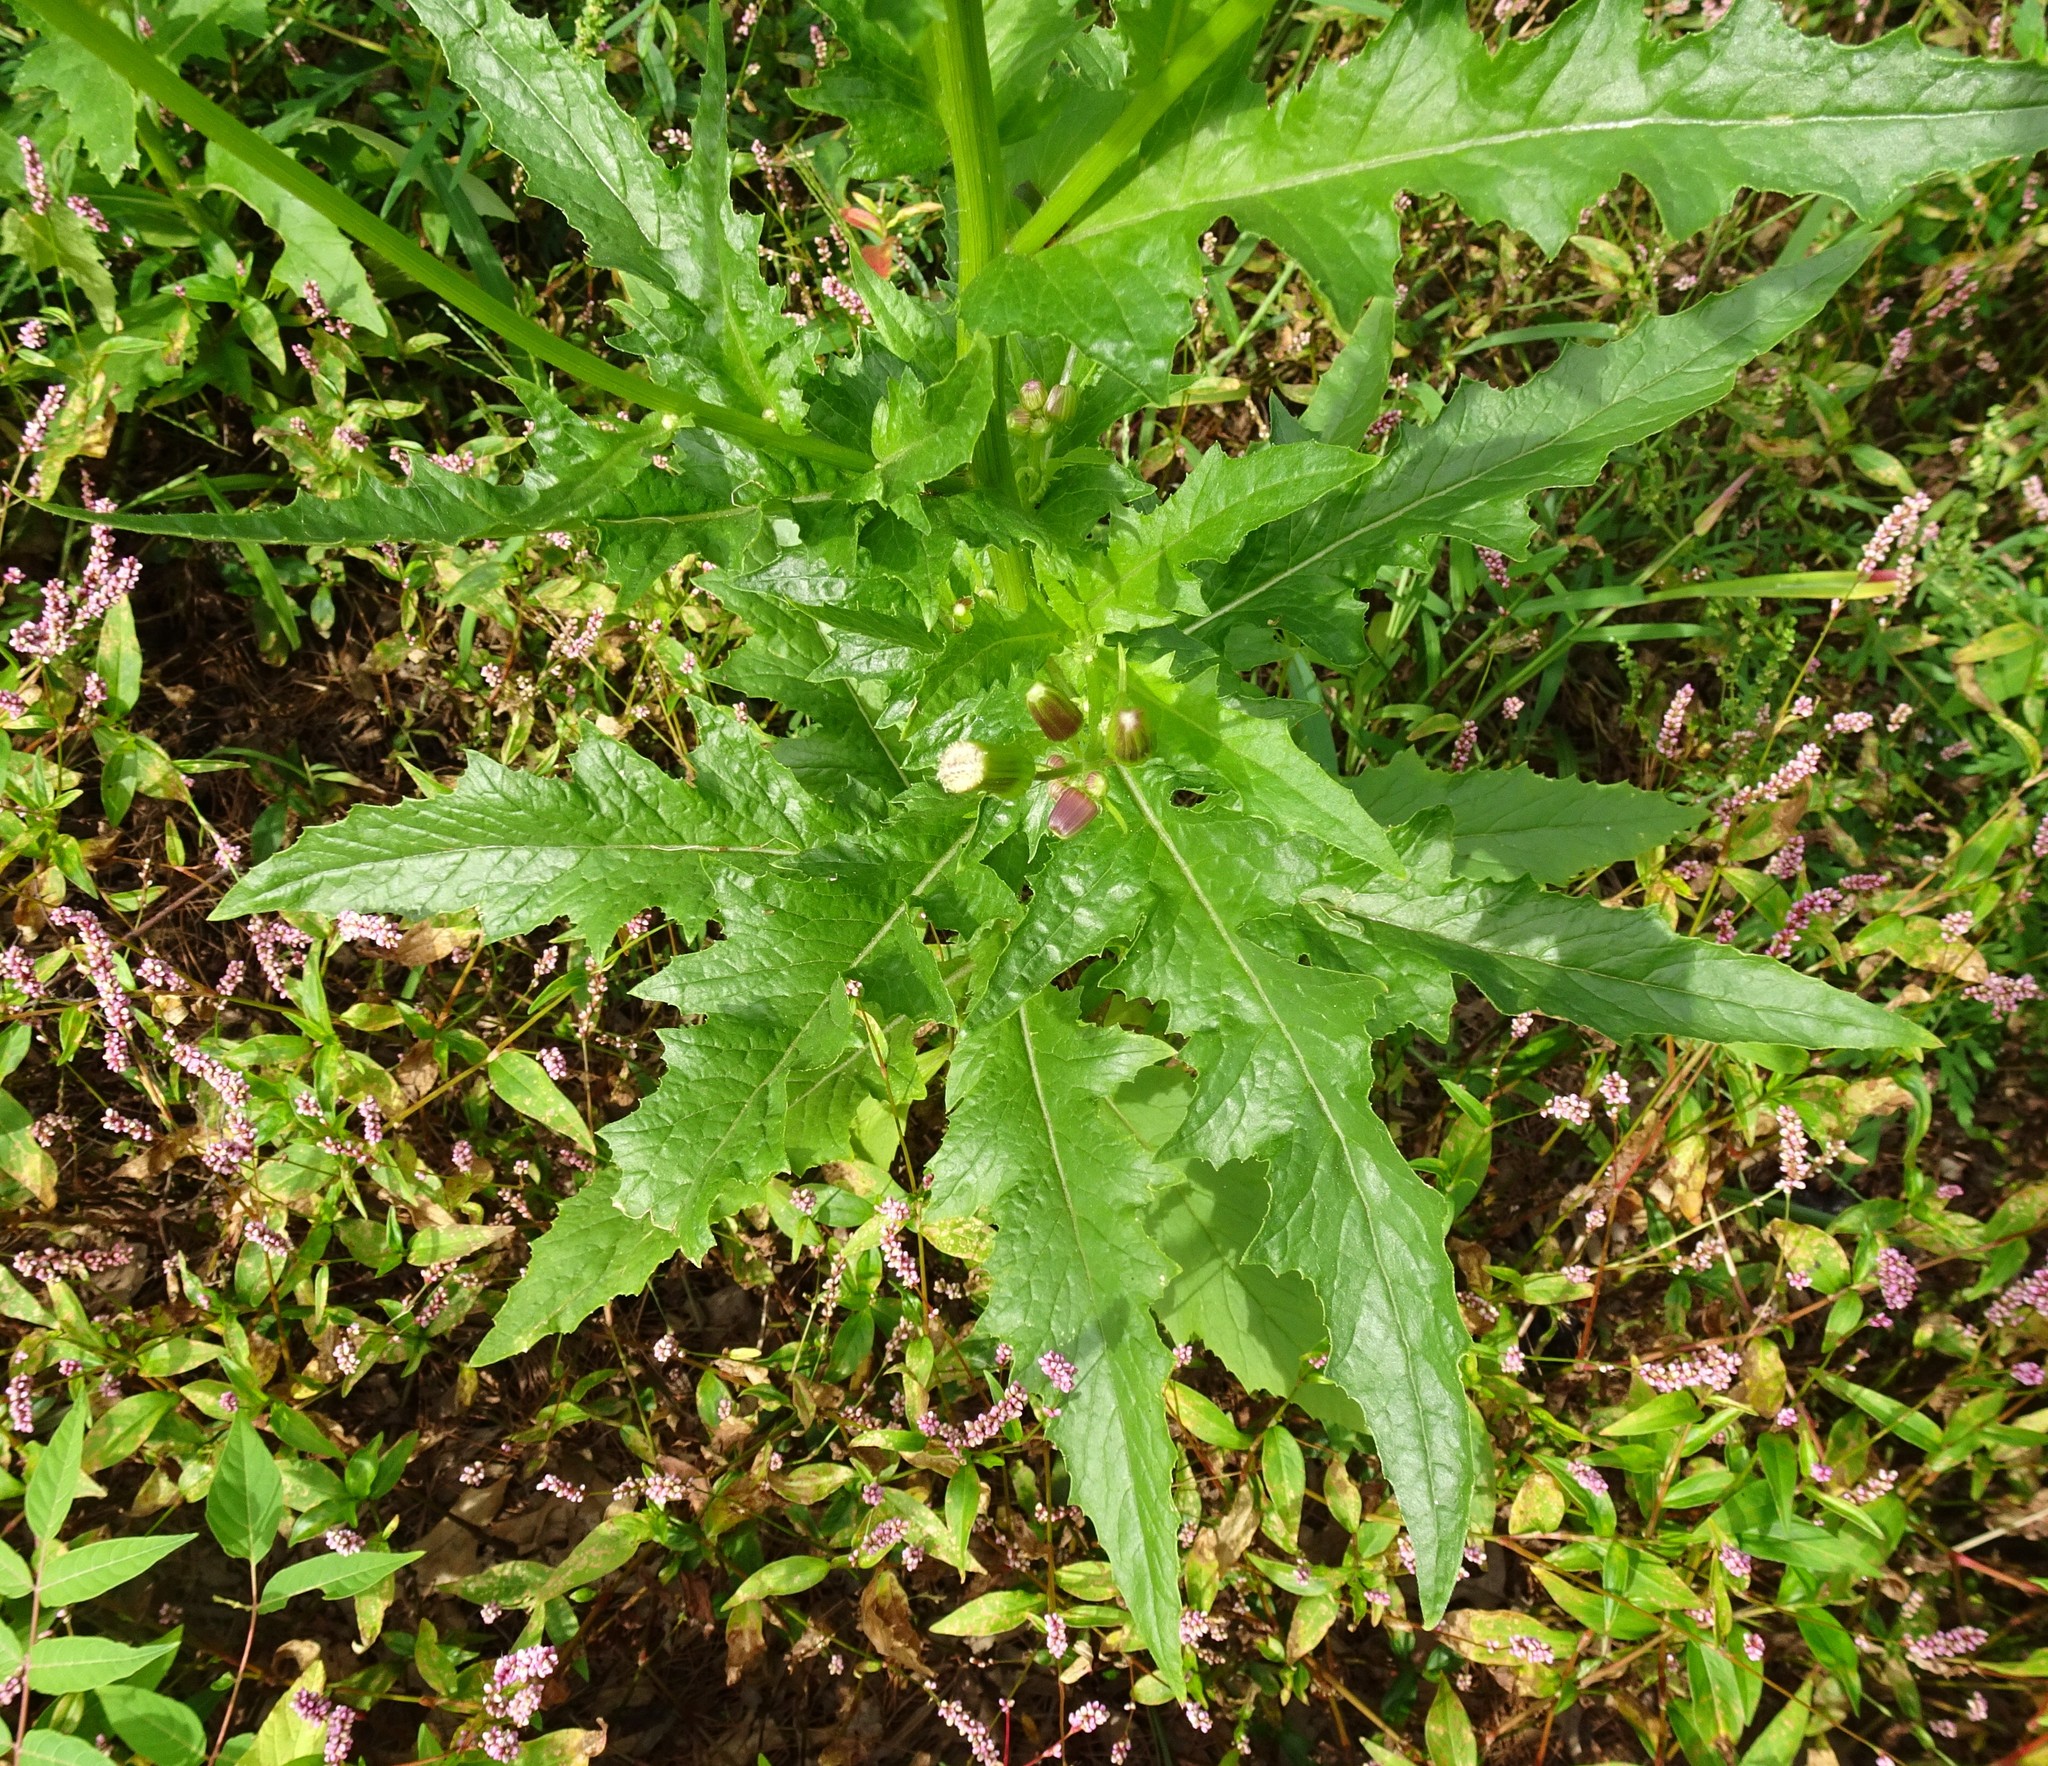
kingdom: Plantae
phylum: Tracheophyta
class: Magnoliopsida
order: Asterales
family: Asteraceae
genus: Erechtites
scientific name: Erechtites hieraciifolius
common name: American burnweed
